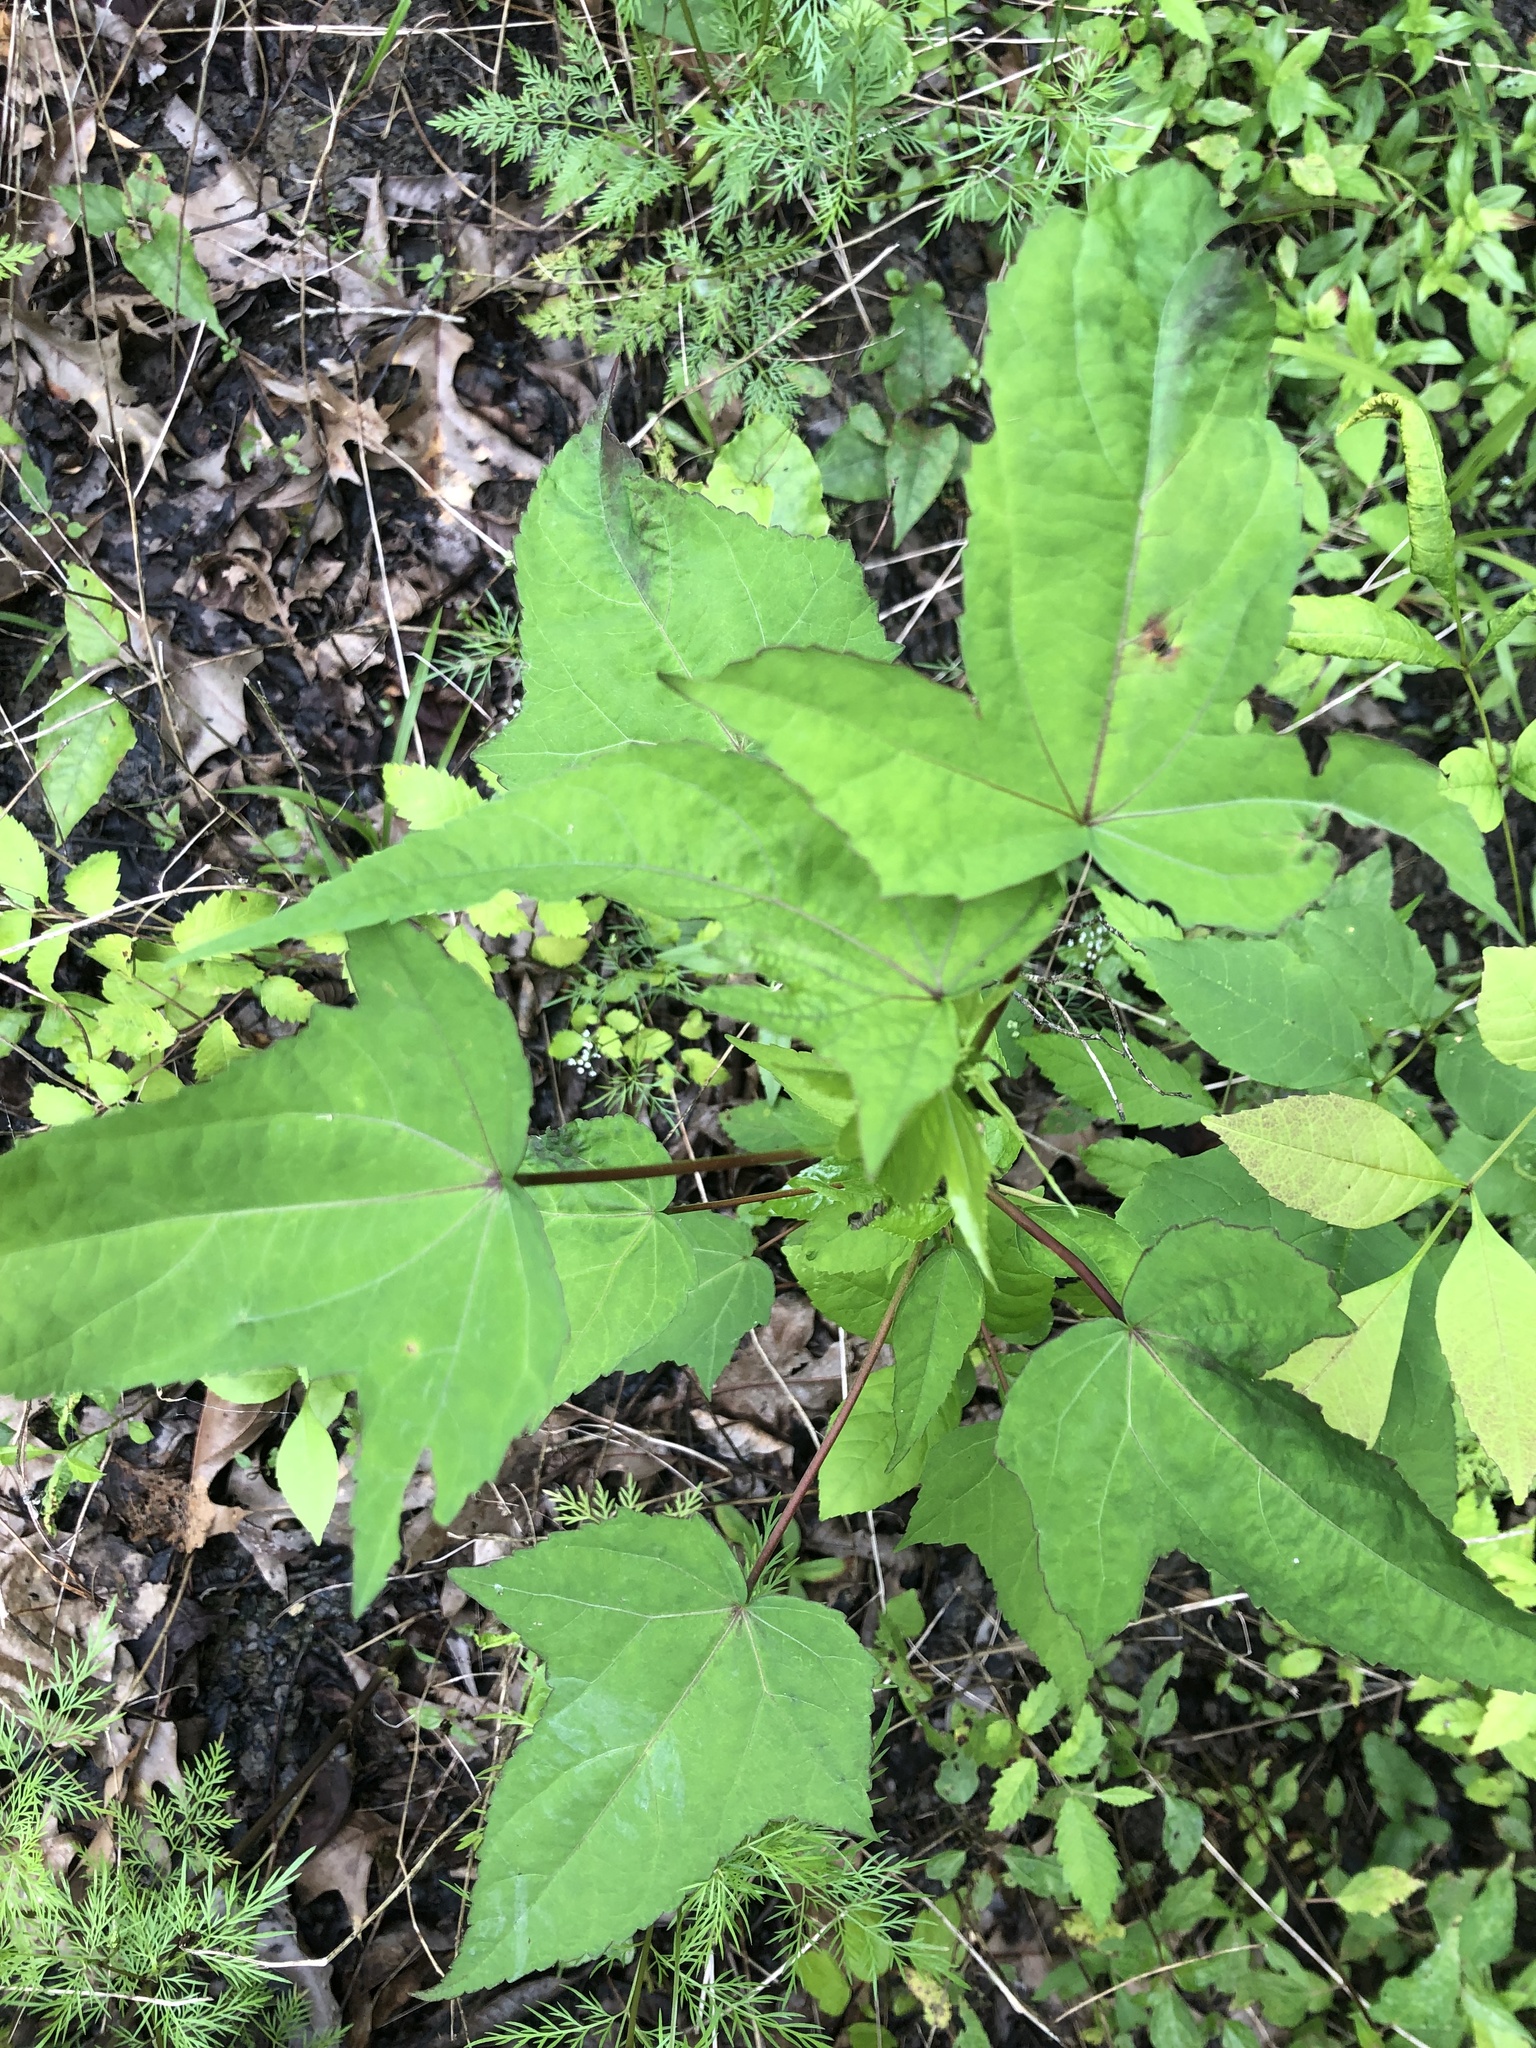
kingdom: Plantae
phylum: Tracheophyta
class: Magnoliopsida
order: Malvales
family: Malvaceae
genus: Hibiscus
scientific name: Hibiscus laevis
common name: Scarlet rose-mallow
